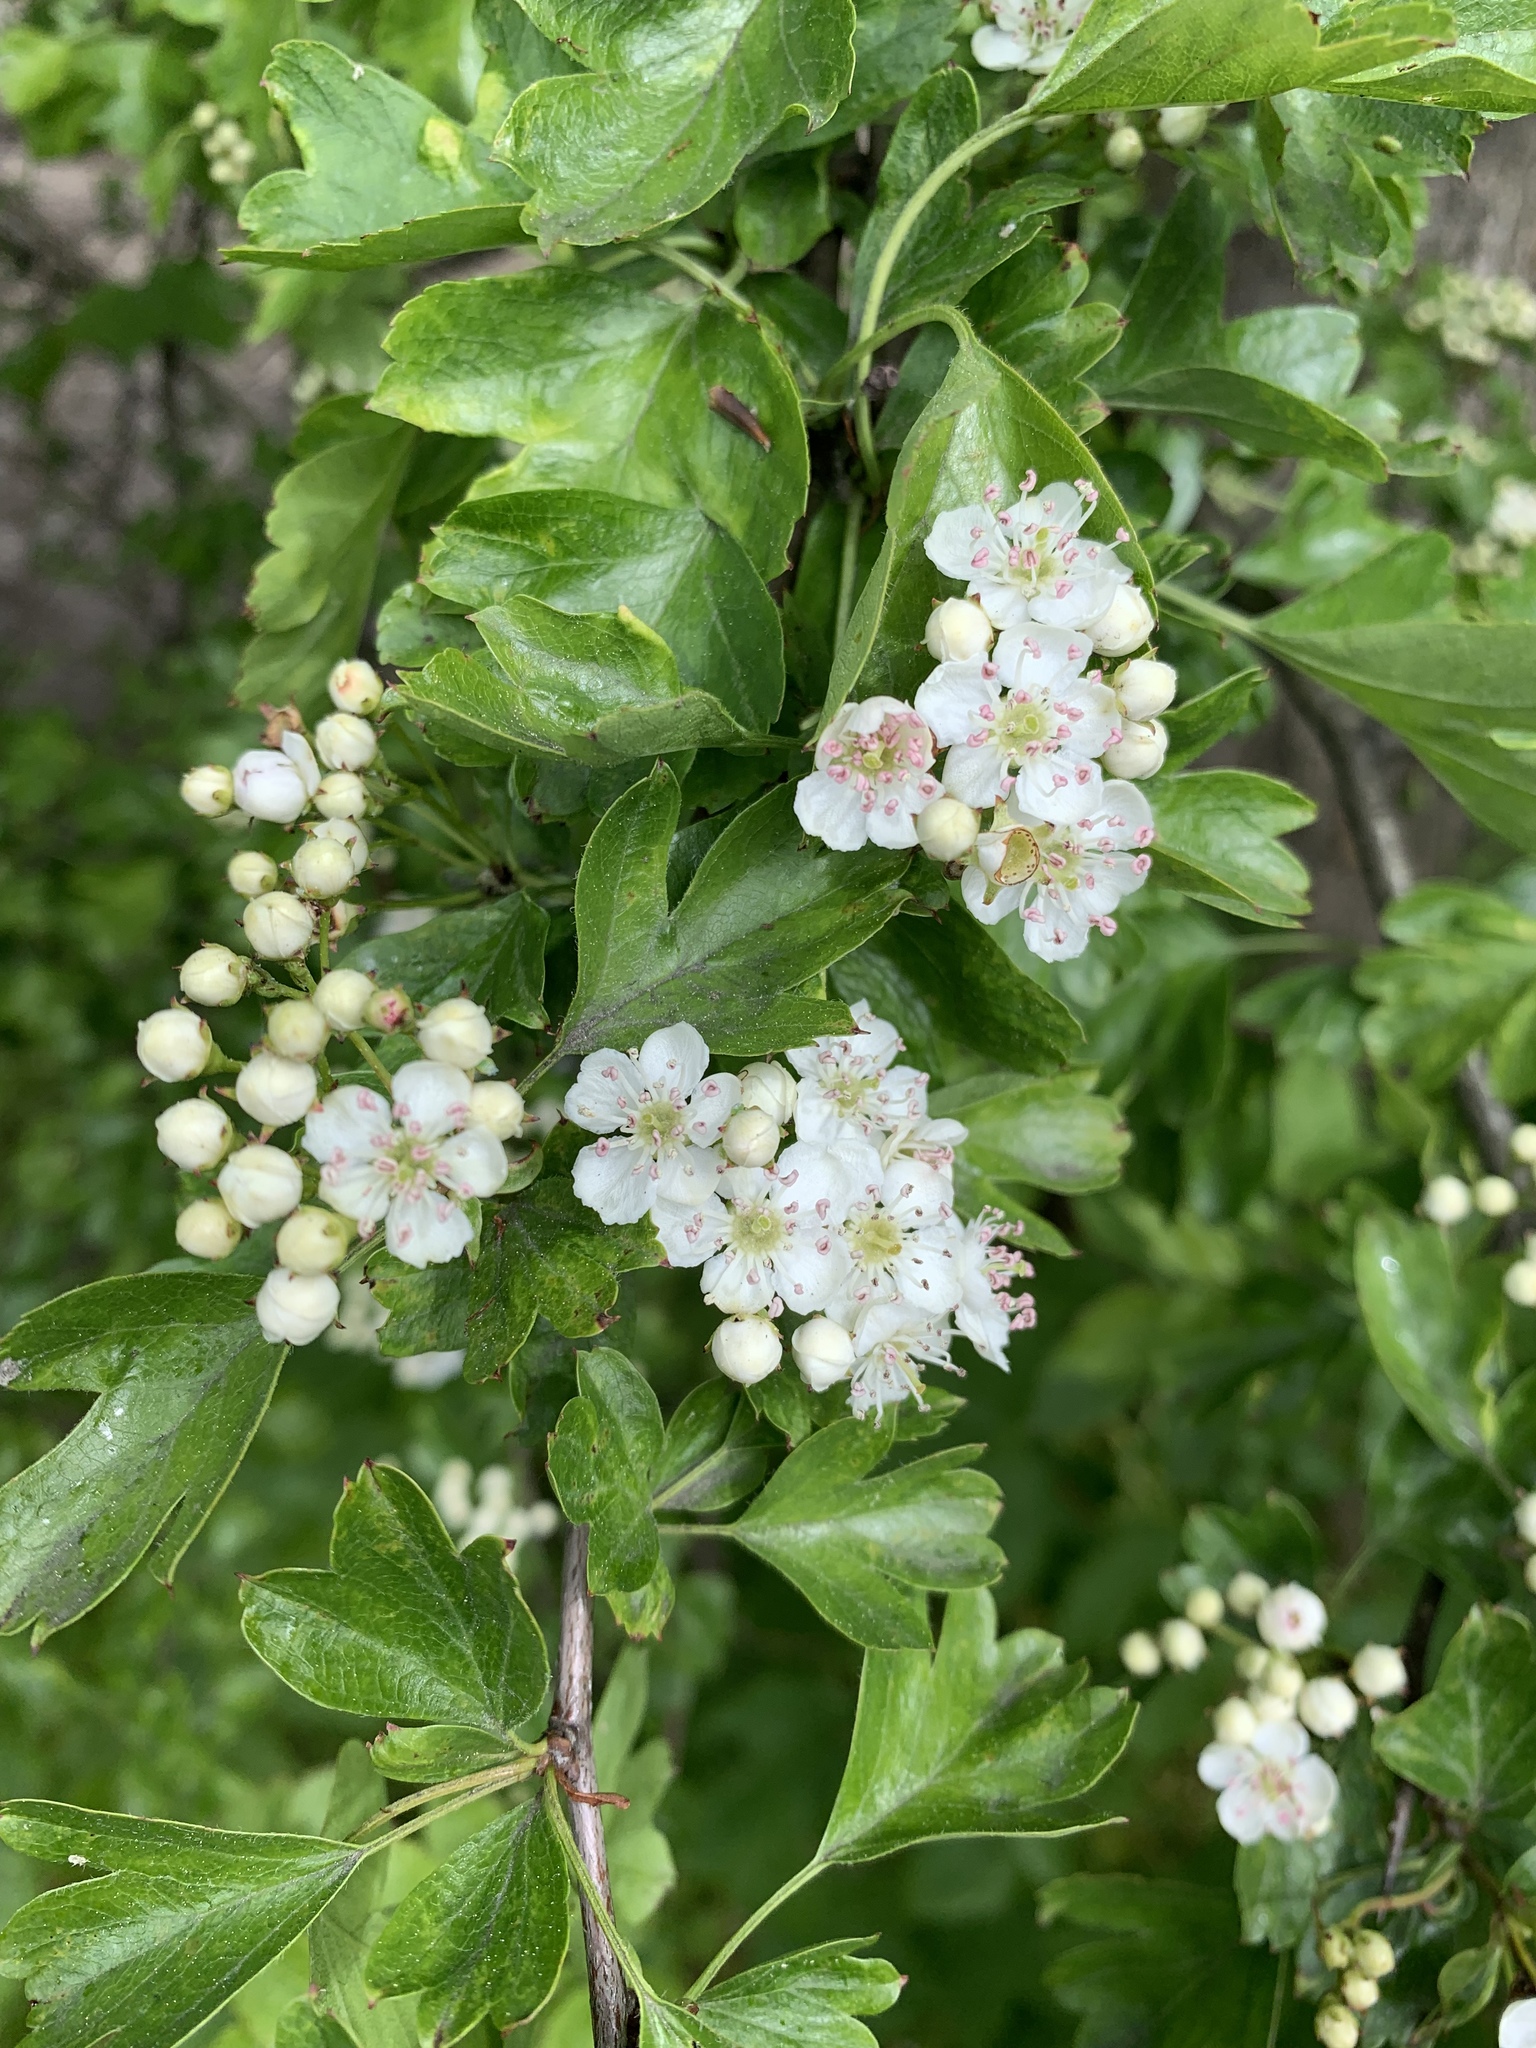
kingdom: Plantae
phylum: Tracheophyta
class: Magnoliopsida
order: Rosales
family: Rosaceae
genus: Crataegus
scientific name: Crataegus monogyna
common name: Hawthorn
